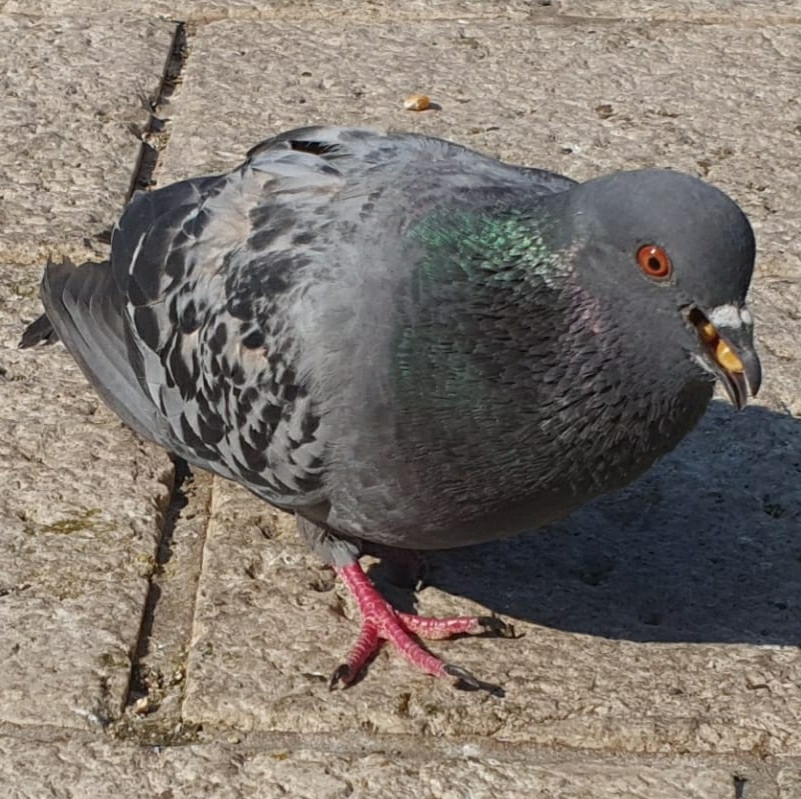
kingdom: Animalia
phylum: Chordata
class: Aves
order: Columbiformes
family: Columbidae
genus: Columba
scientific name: Columba livia
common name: Rock pigeon
